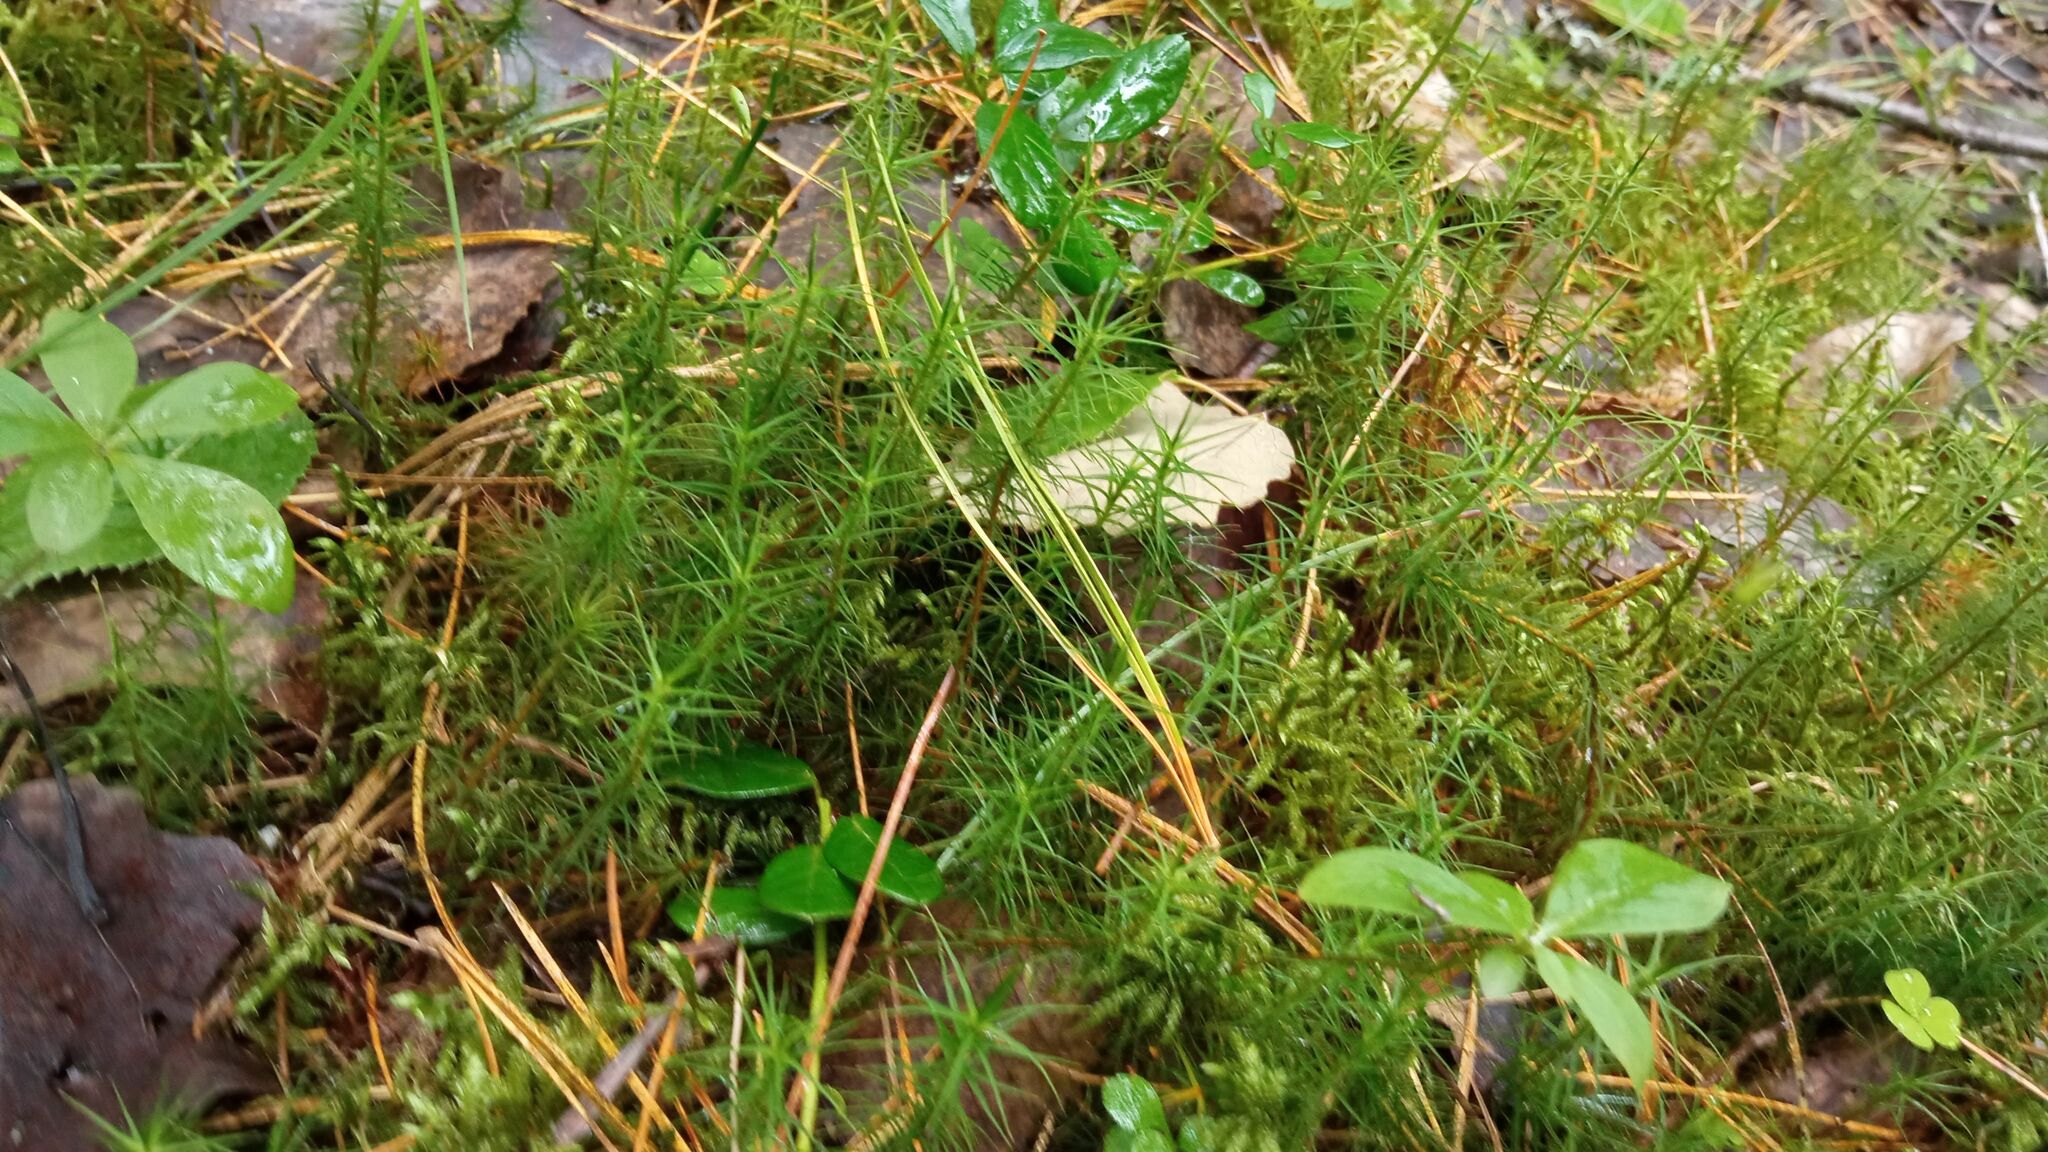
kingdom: Plantae
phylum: Bryophyta
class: Polytrichopsida
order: Polytrichales
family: Polytrichaceae
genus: Polytrichum
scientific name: Polytrichum commune
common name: Common haircap
